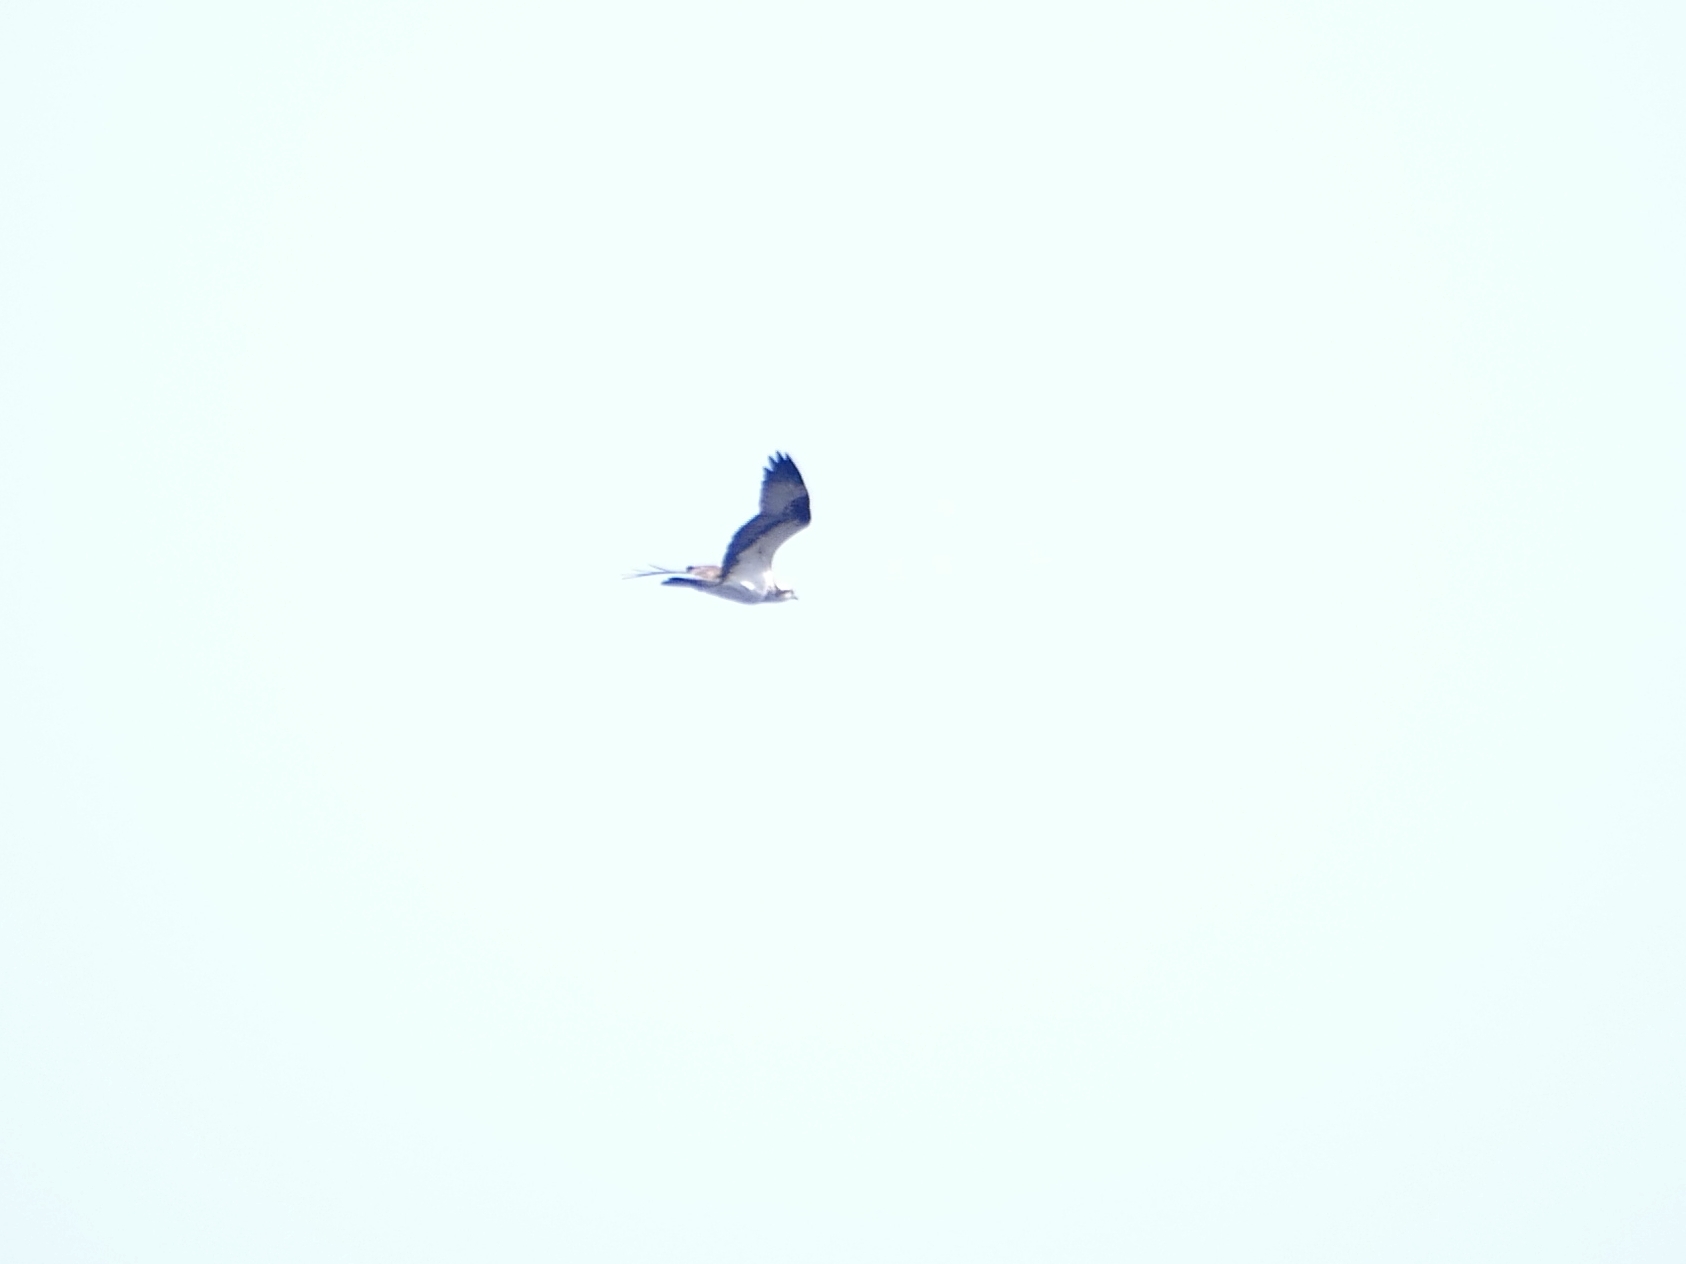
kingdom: Animalia
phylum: Chordata
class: Aves
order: Accipitriformes
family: Pandionidae
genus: Pandion
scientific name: Pandion haliaetus
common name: Osprey
